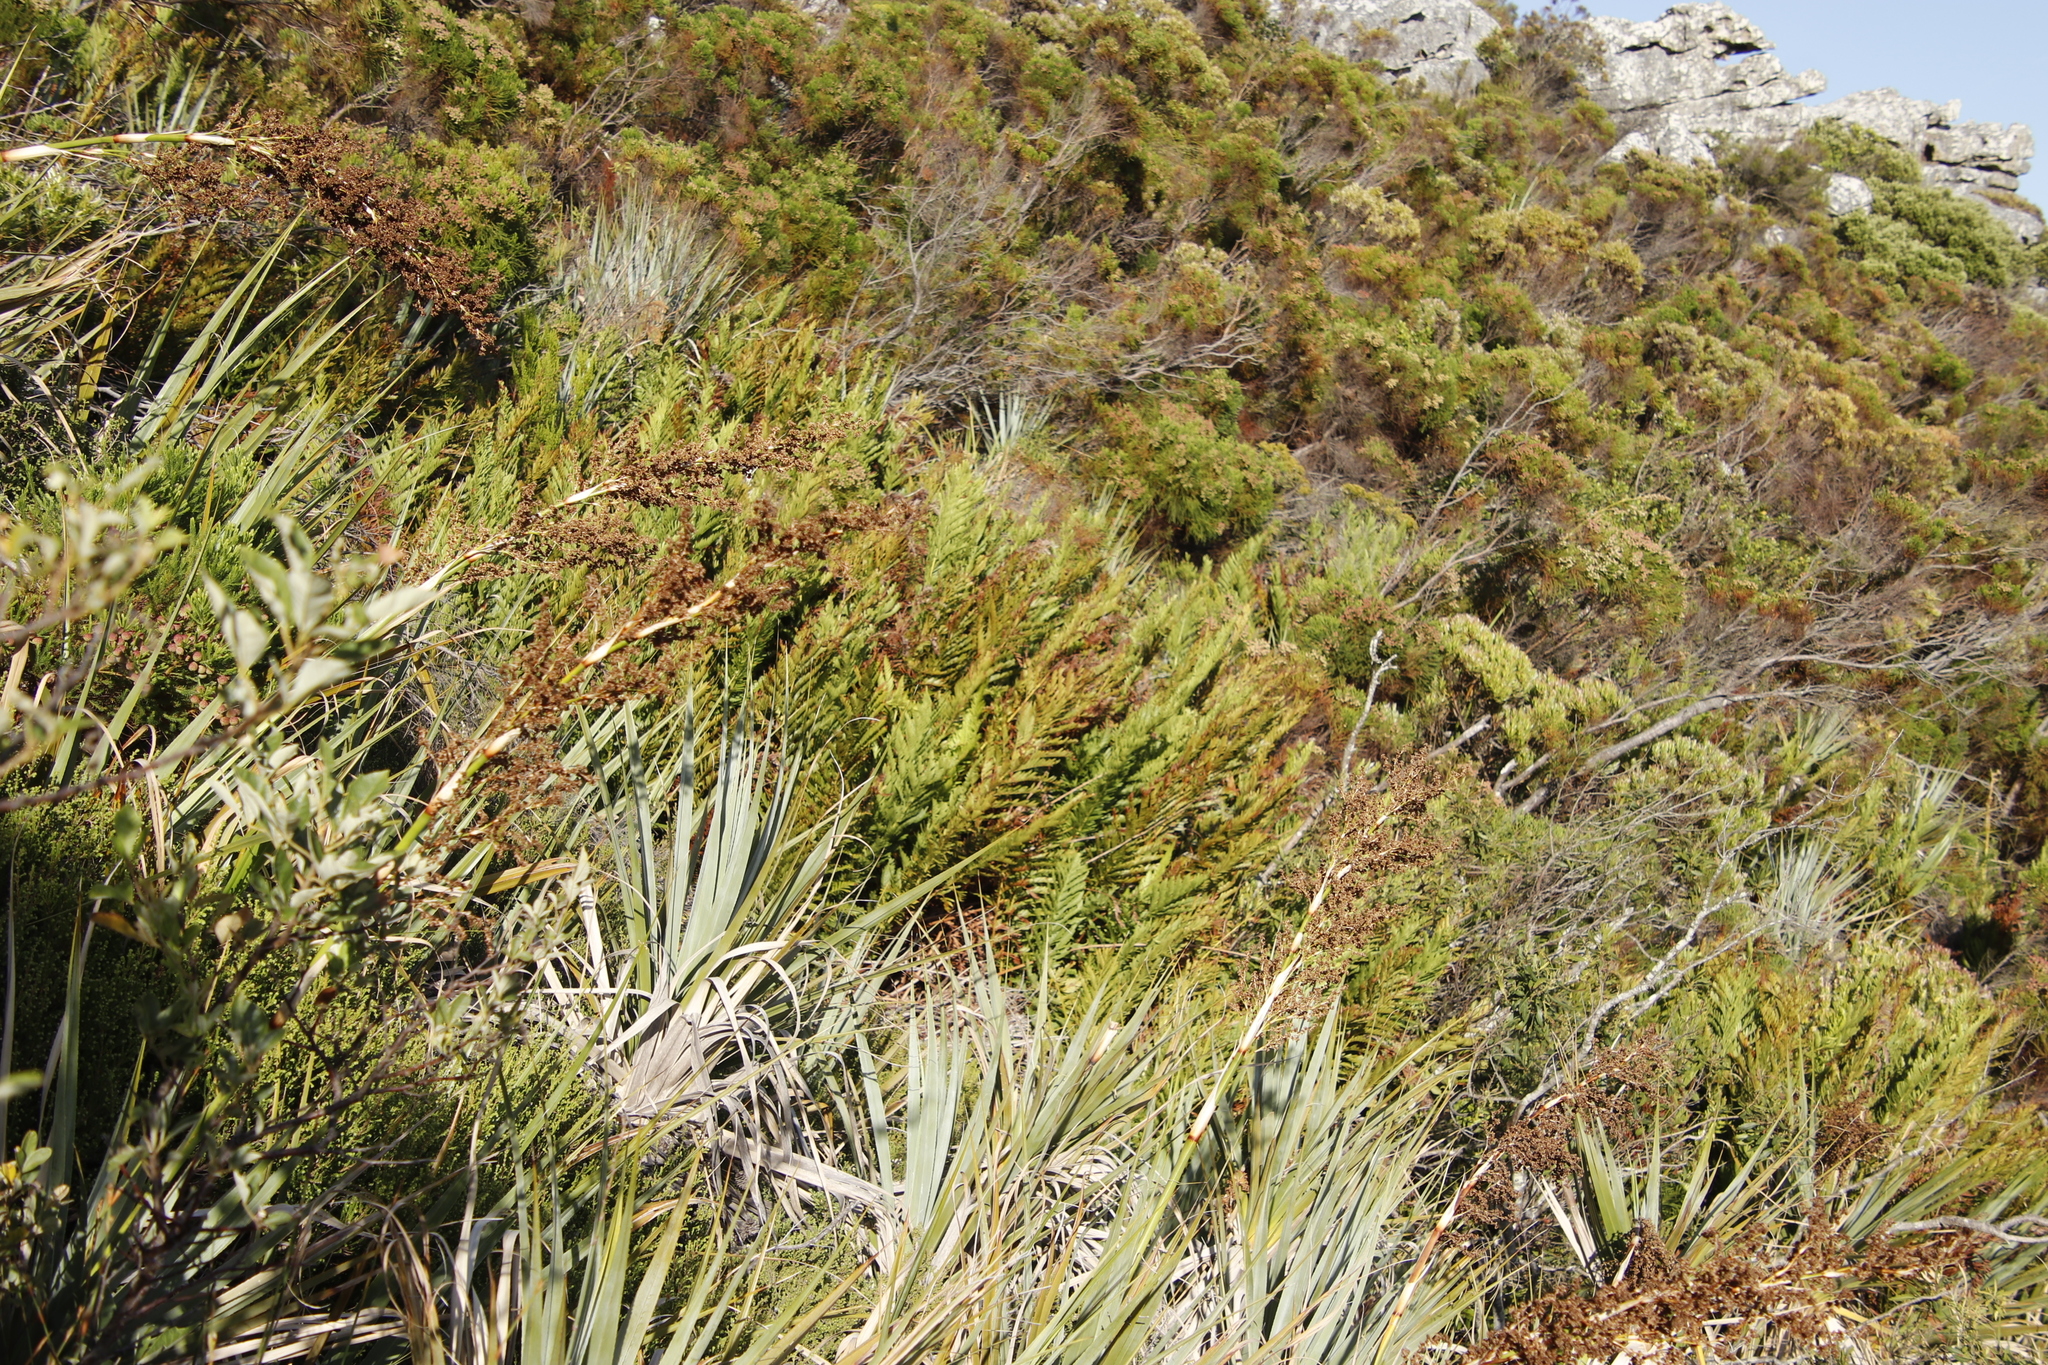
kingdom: Plantae
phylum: Tracheophyta
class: Polypodiopsida
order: Osmundales
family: Osmundaceae
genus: Todea
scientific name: Todea barbara
